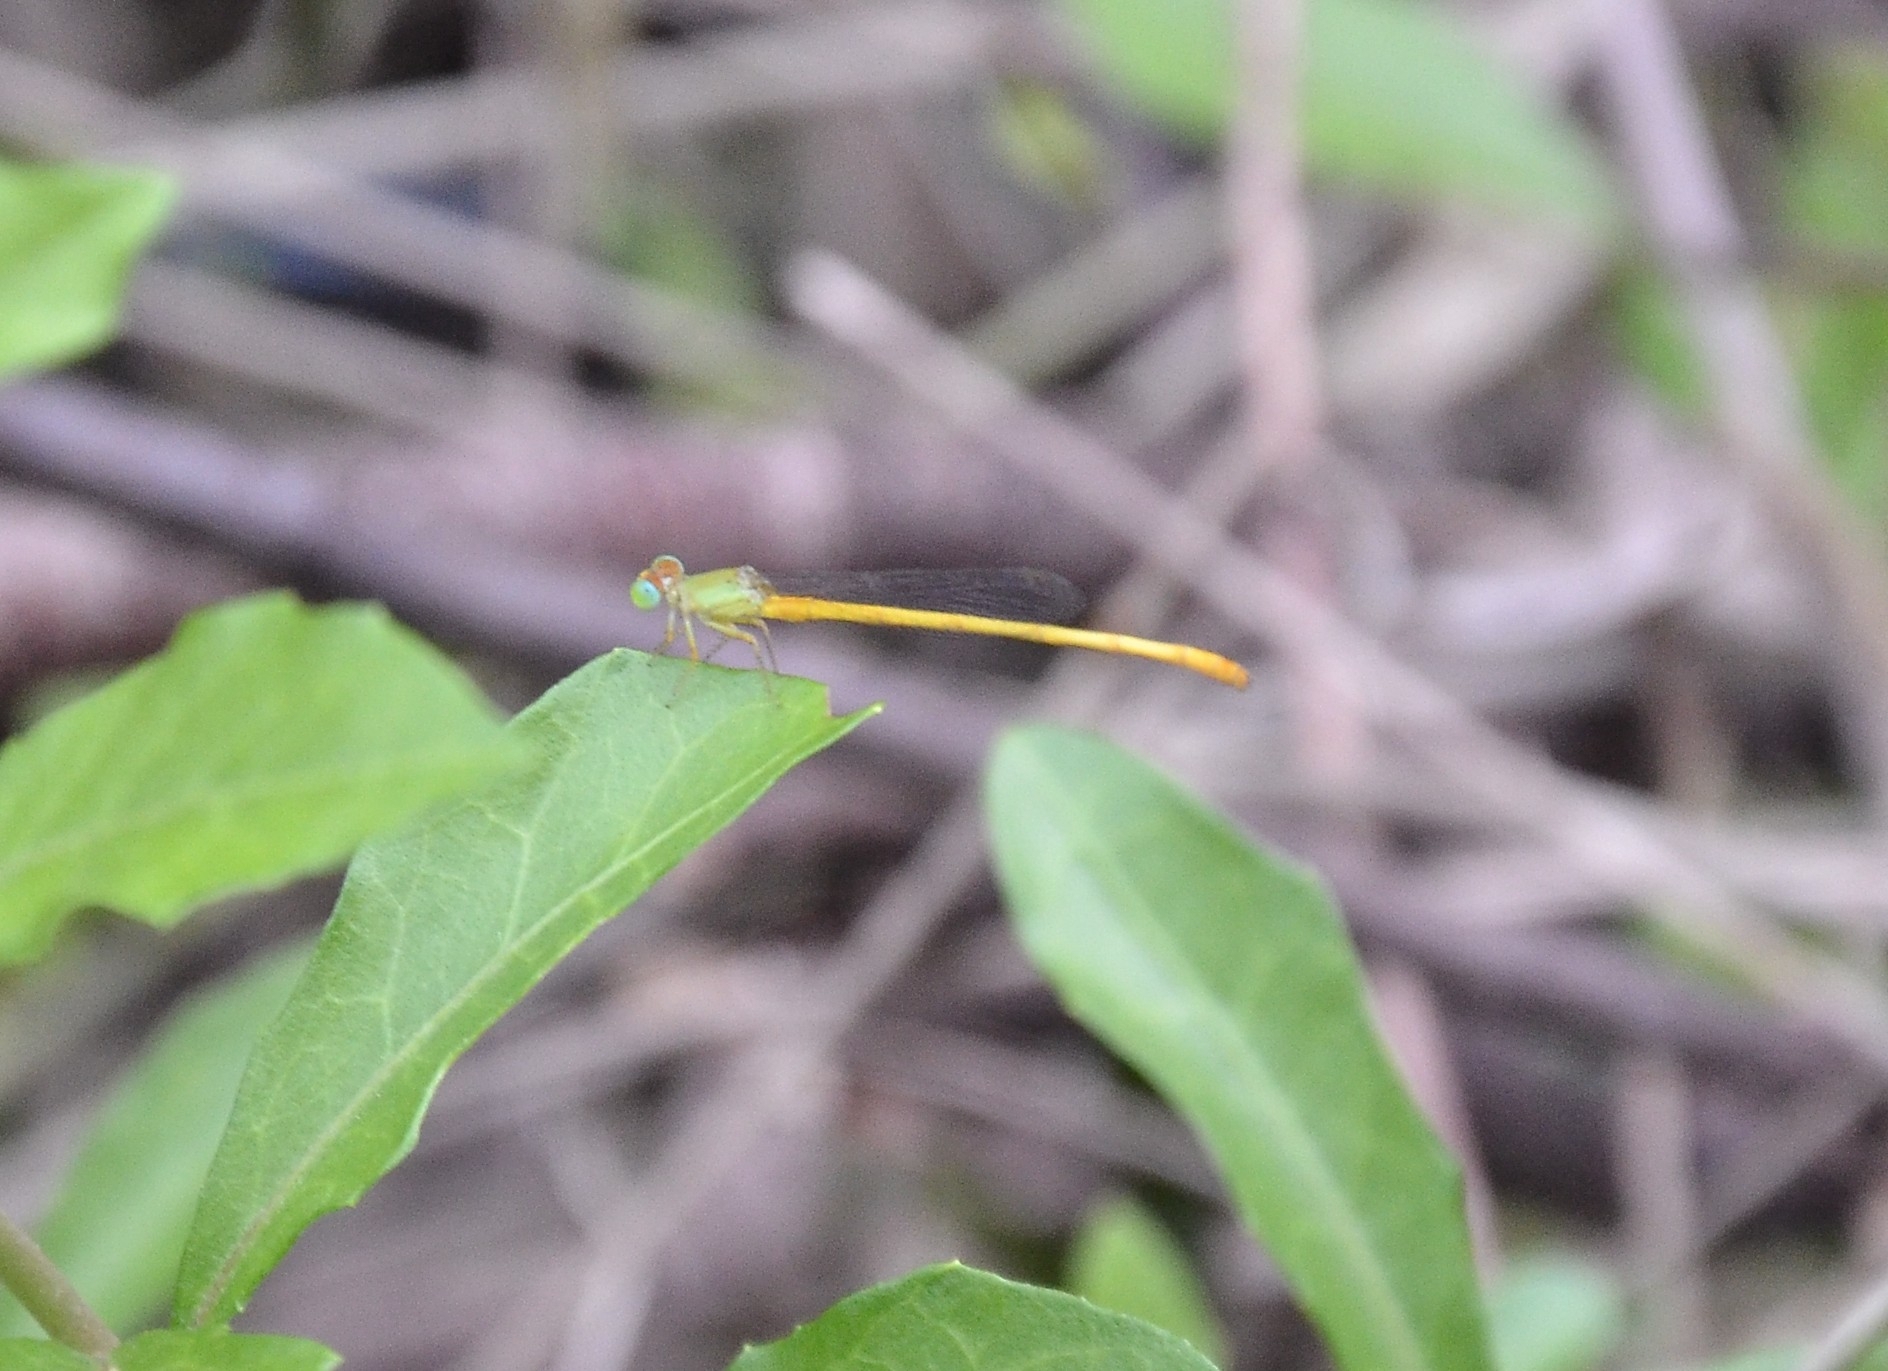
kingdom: Animalia
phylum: Arthropoda
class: Insecta
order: Odonata
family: Coenagrionidae
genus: Ceriagrion
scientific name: Ceriagrion coromandelianum
